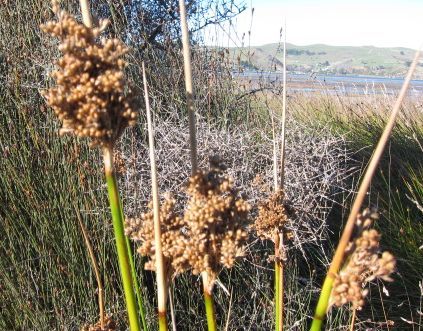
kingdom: Plantae
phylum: Tracheophyta
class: Liliopsida
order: Poales
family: Juncaceae
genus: Juncus
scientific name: Juncus pallidus
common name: Great soft-rush
